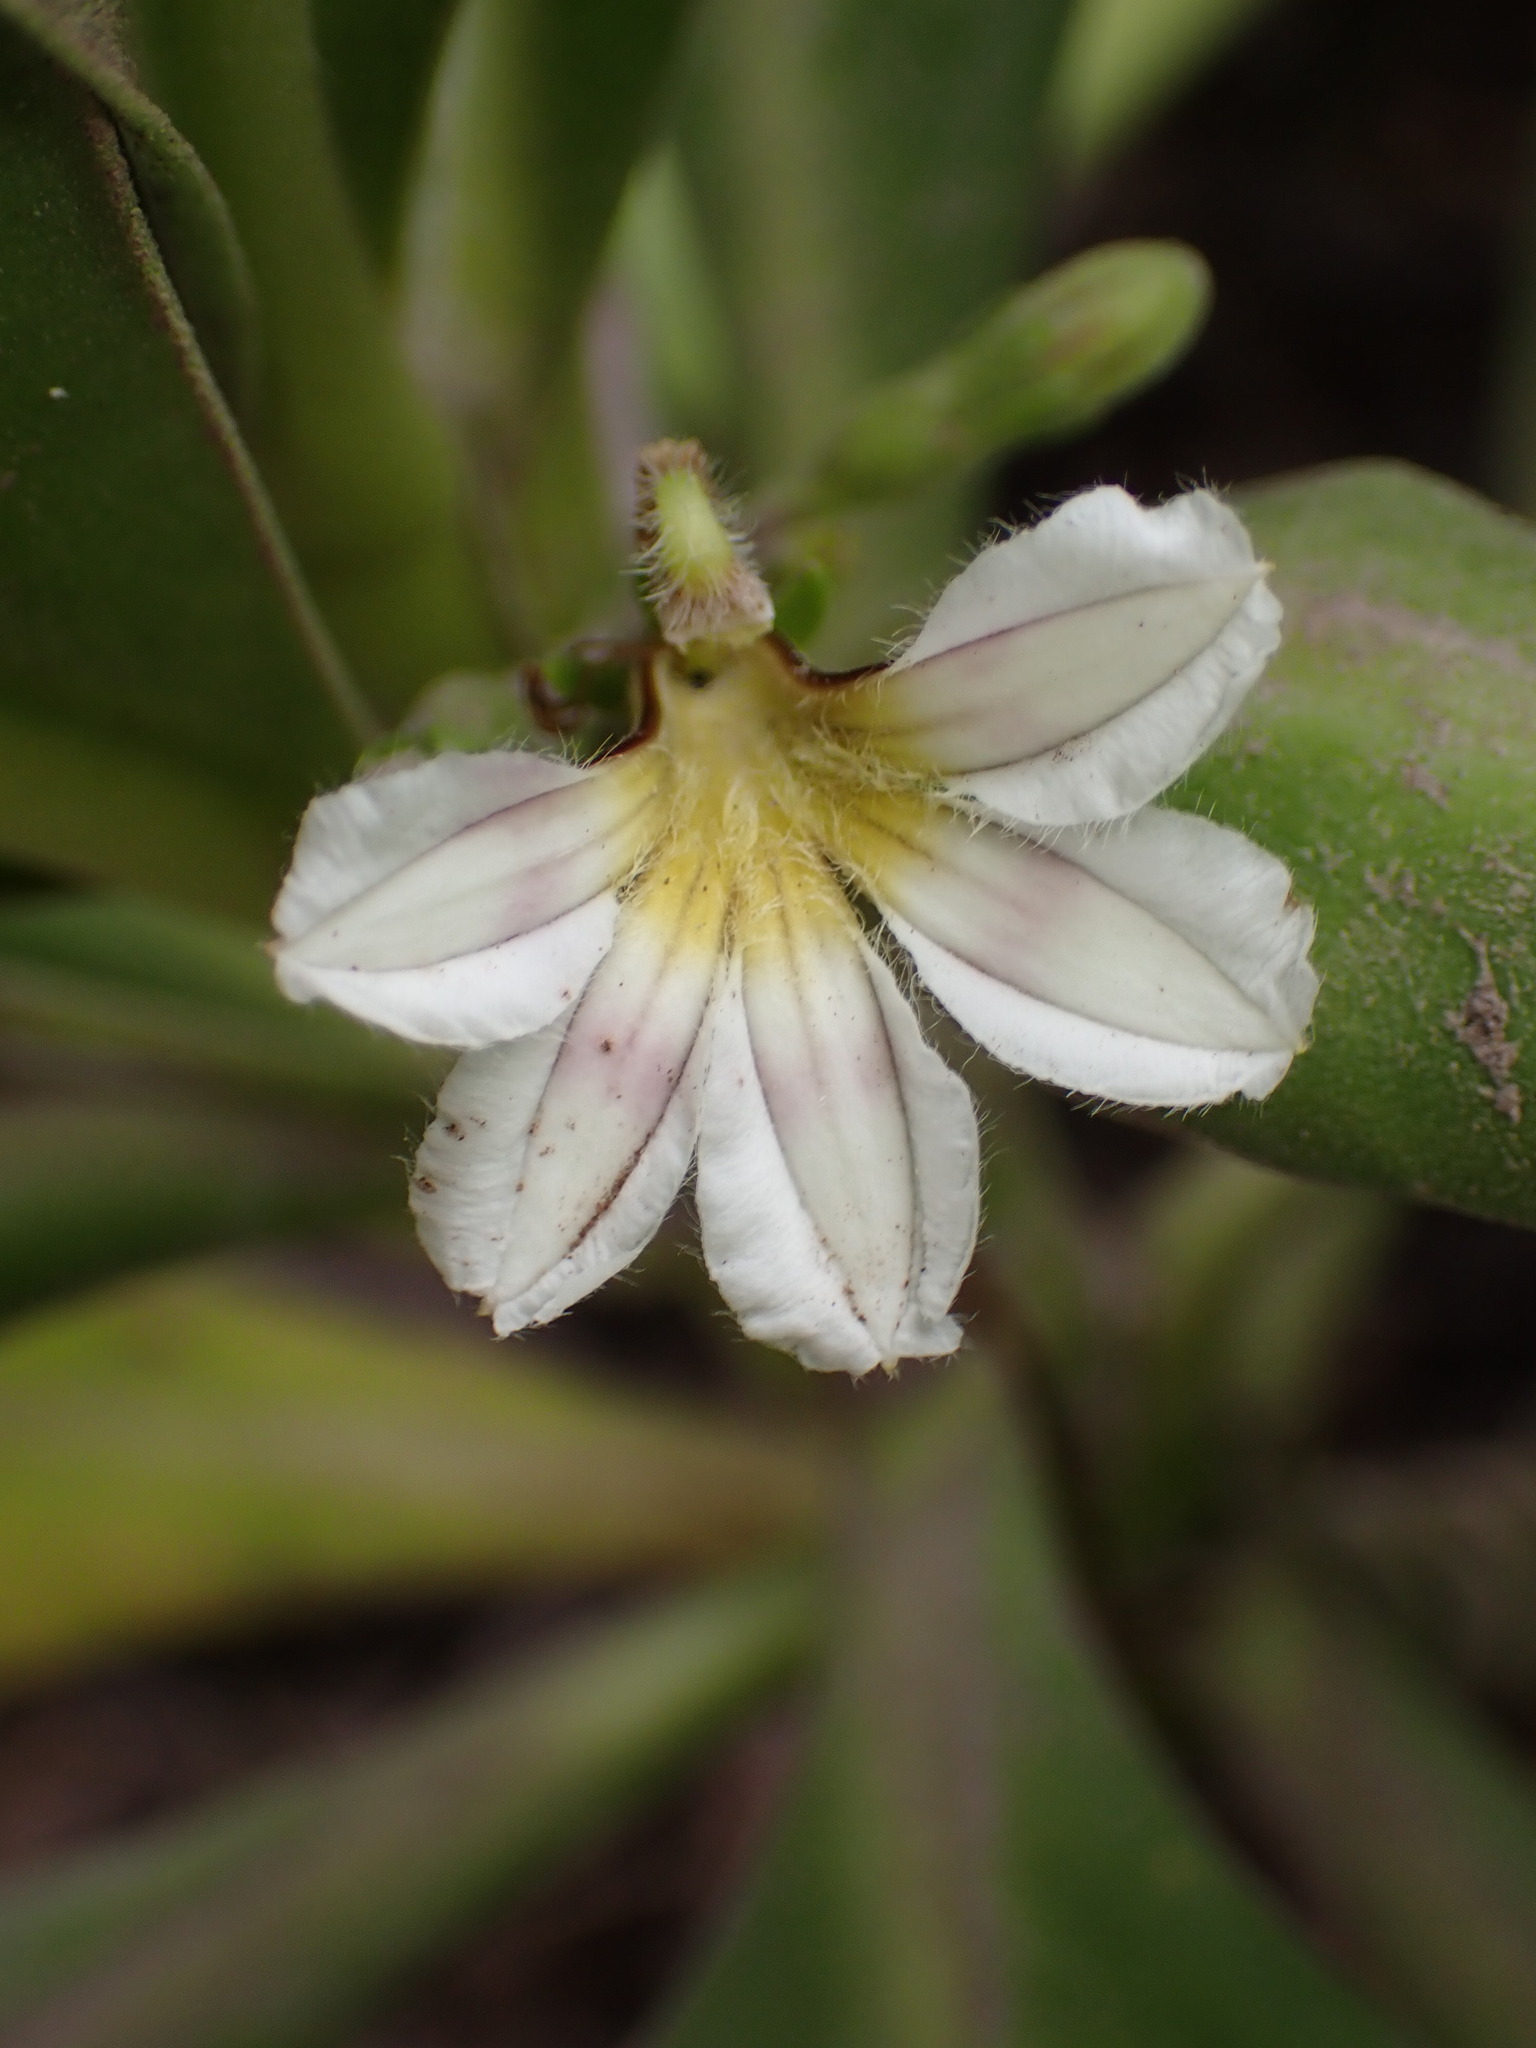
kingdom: Plantae
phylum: Tracheophyta
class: Magnoliopsida
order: Asterales
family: Goodeniaceae
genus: Scaevola
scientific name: Scaevola taccada
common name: Sea lettucetree
